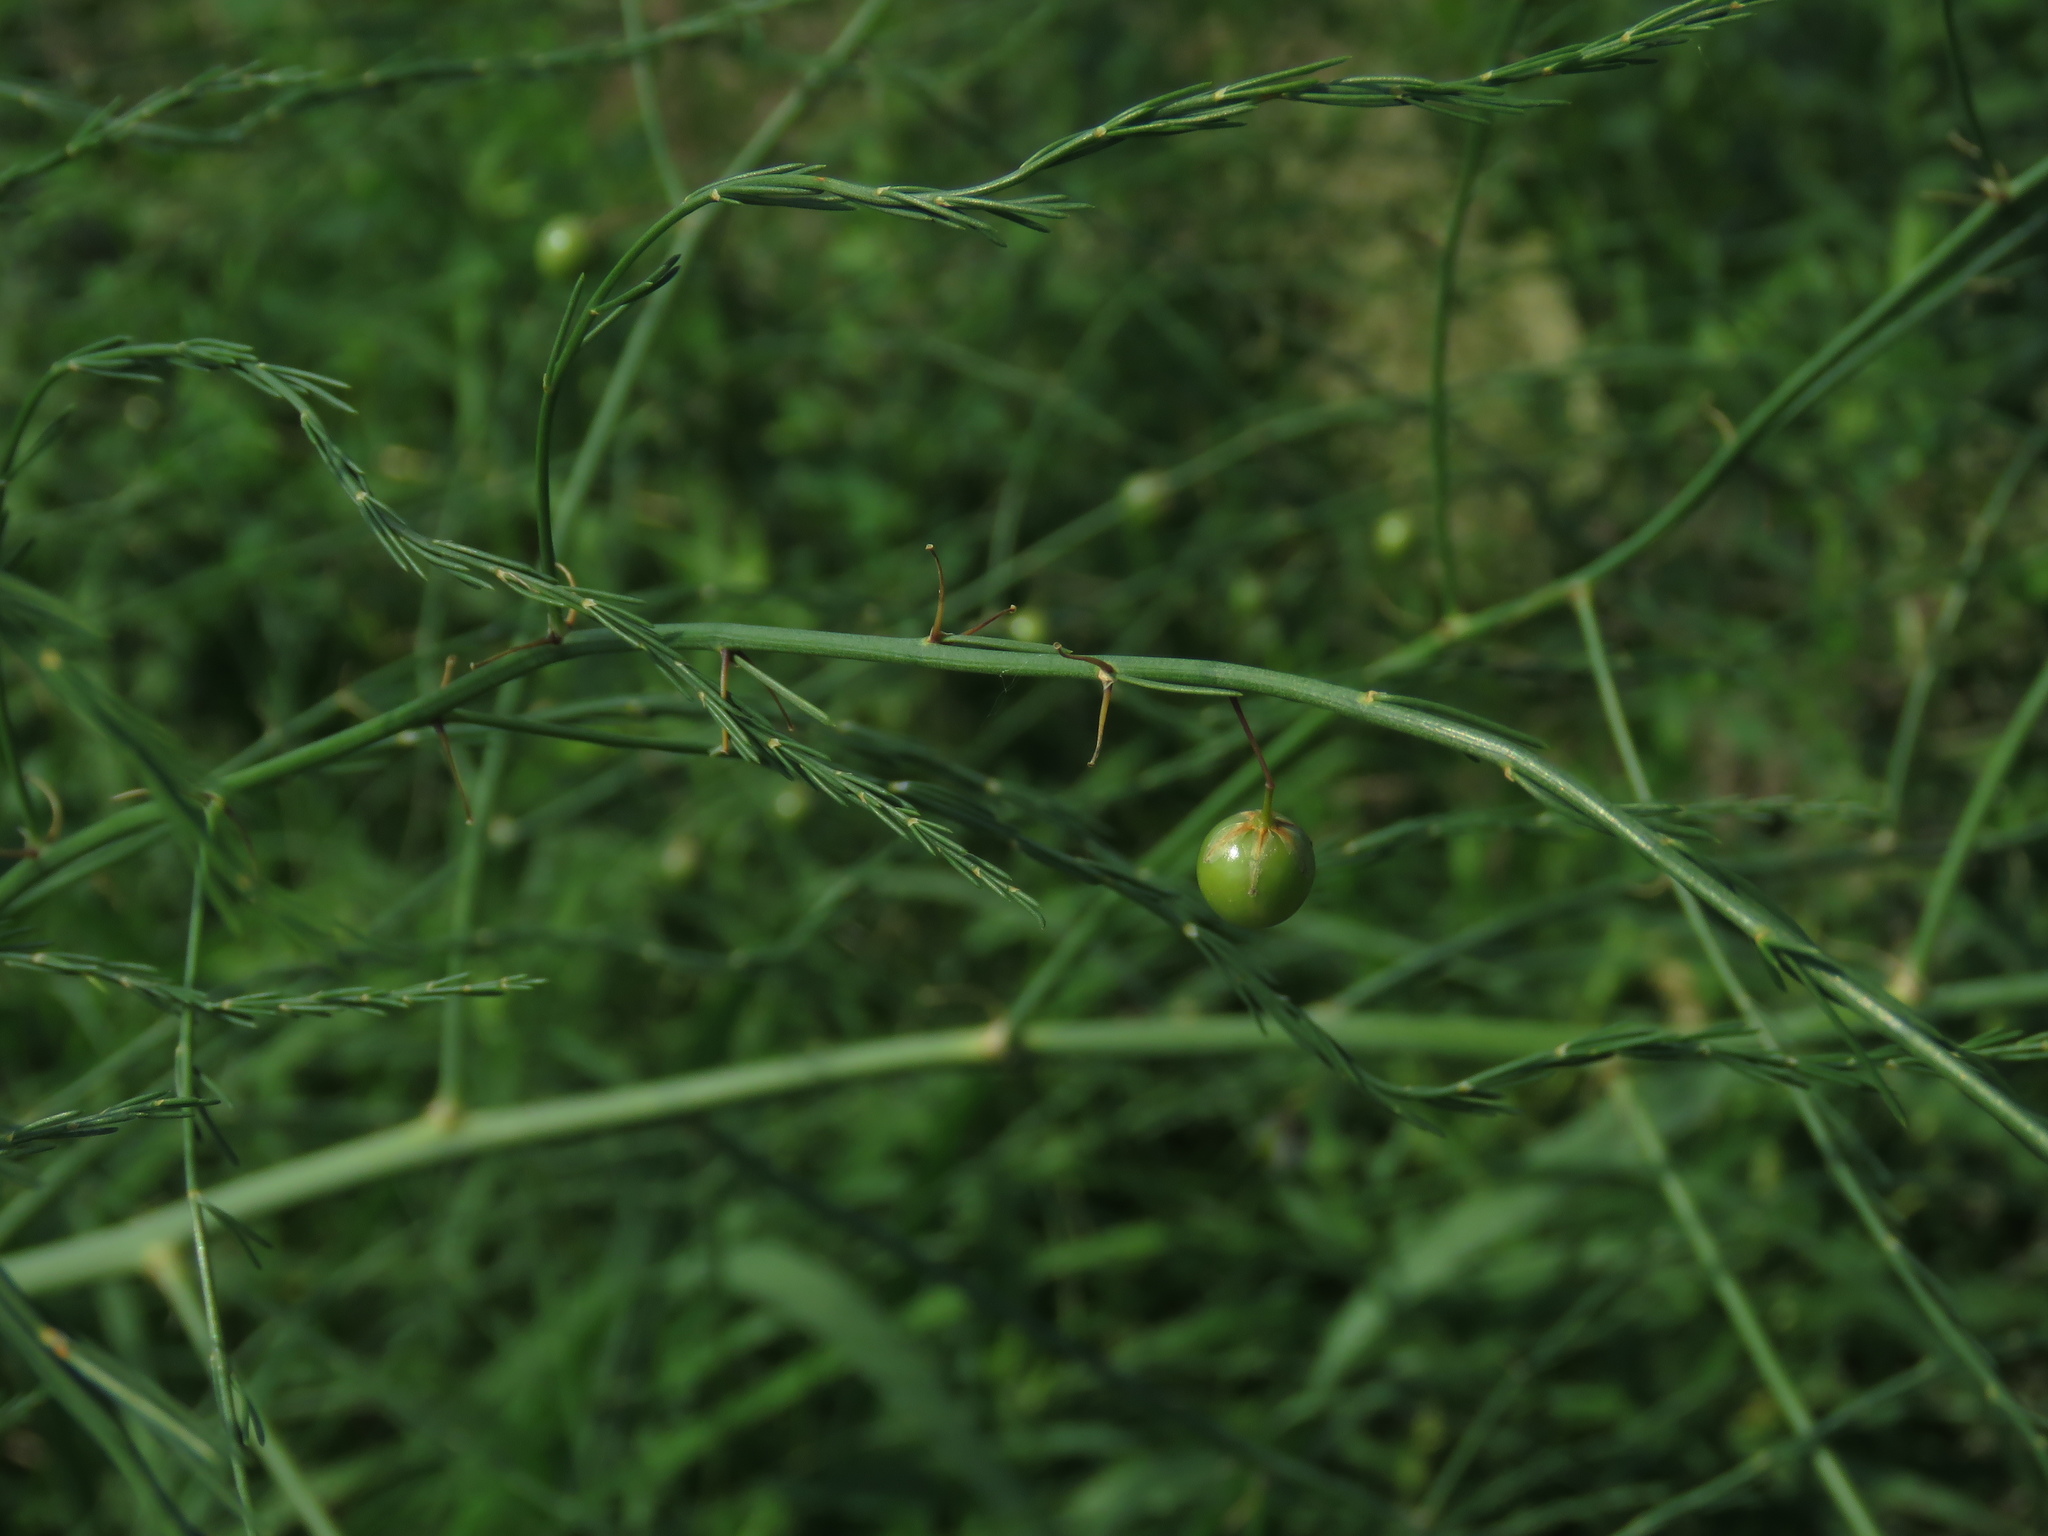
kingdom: Plantae
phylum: Tracheophyta
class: Liliopsida
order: Asparagales
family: Asparagaceae
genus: Asparagus
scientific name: Asparagus officinalis
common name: Garden asparagus
